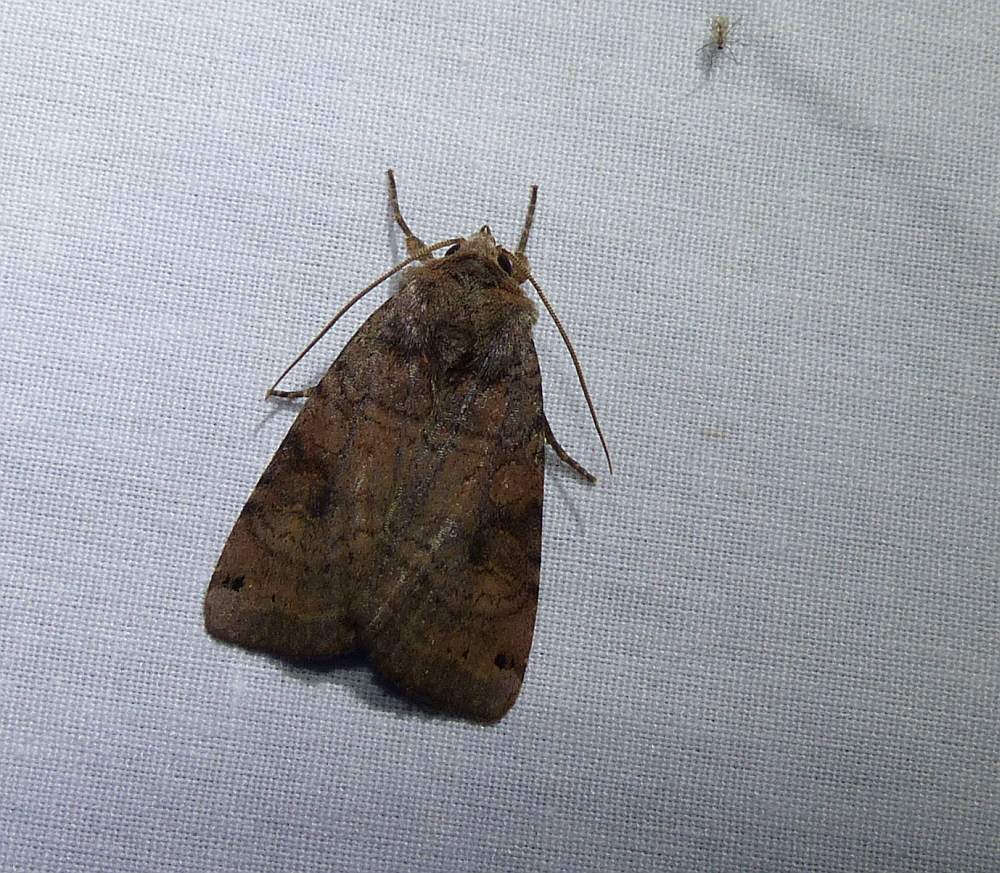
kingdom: Animalia
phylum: Arthropoda
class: Insecta
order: Lepidoptera
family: Noctuidae
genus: Xestia
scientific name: Xestia smithii
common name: Smith's dart
